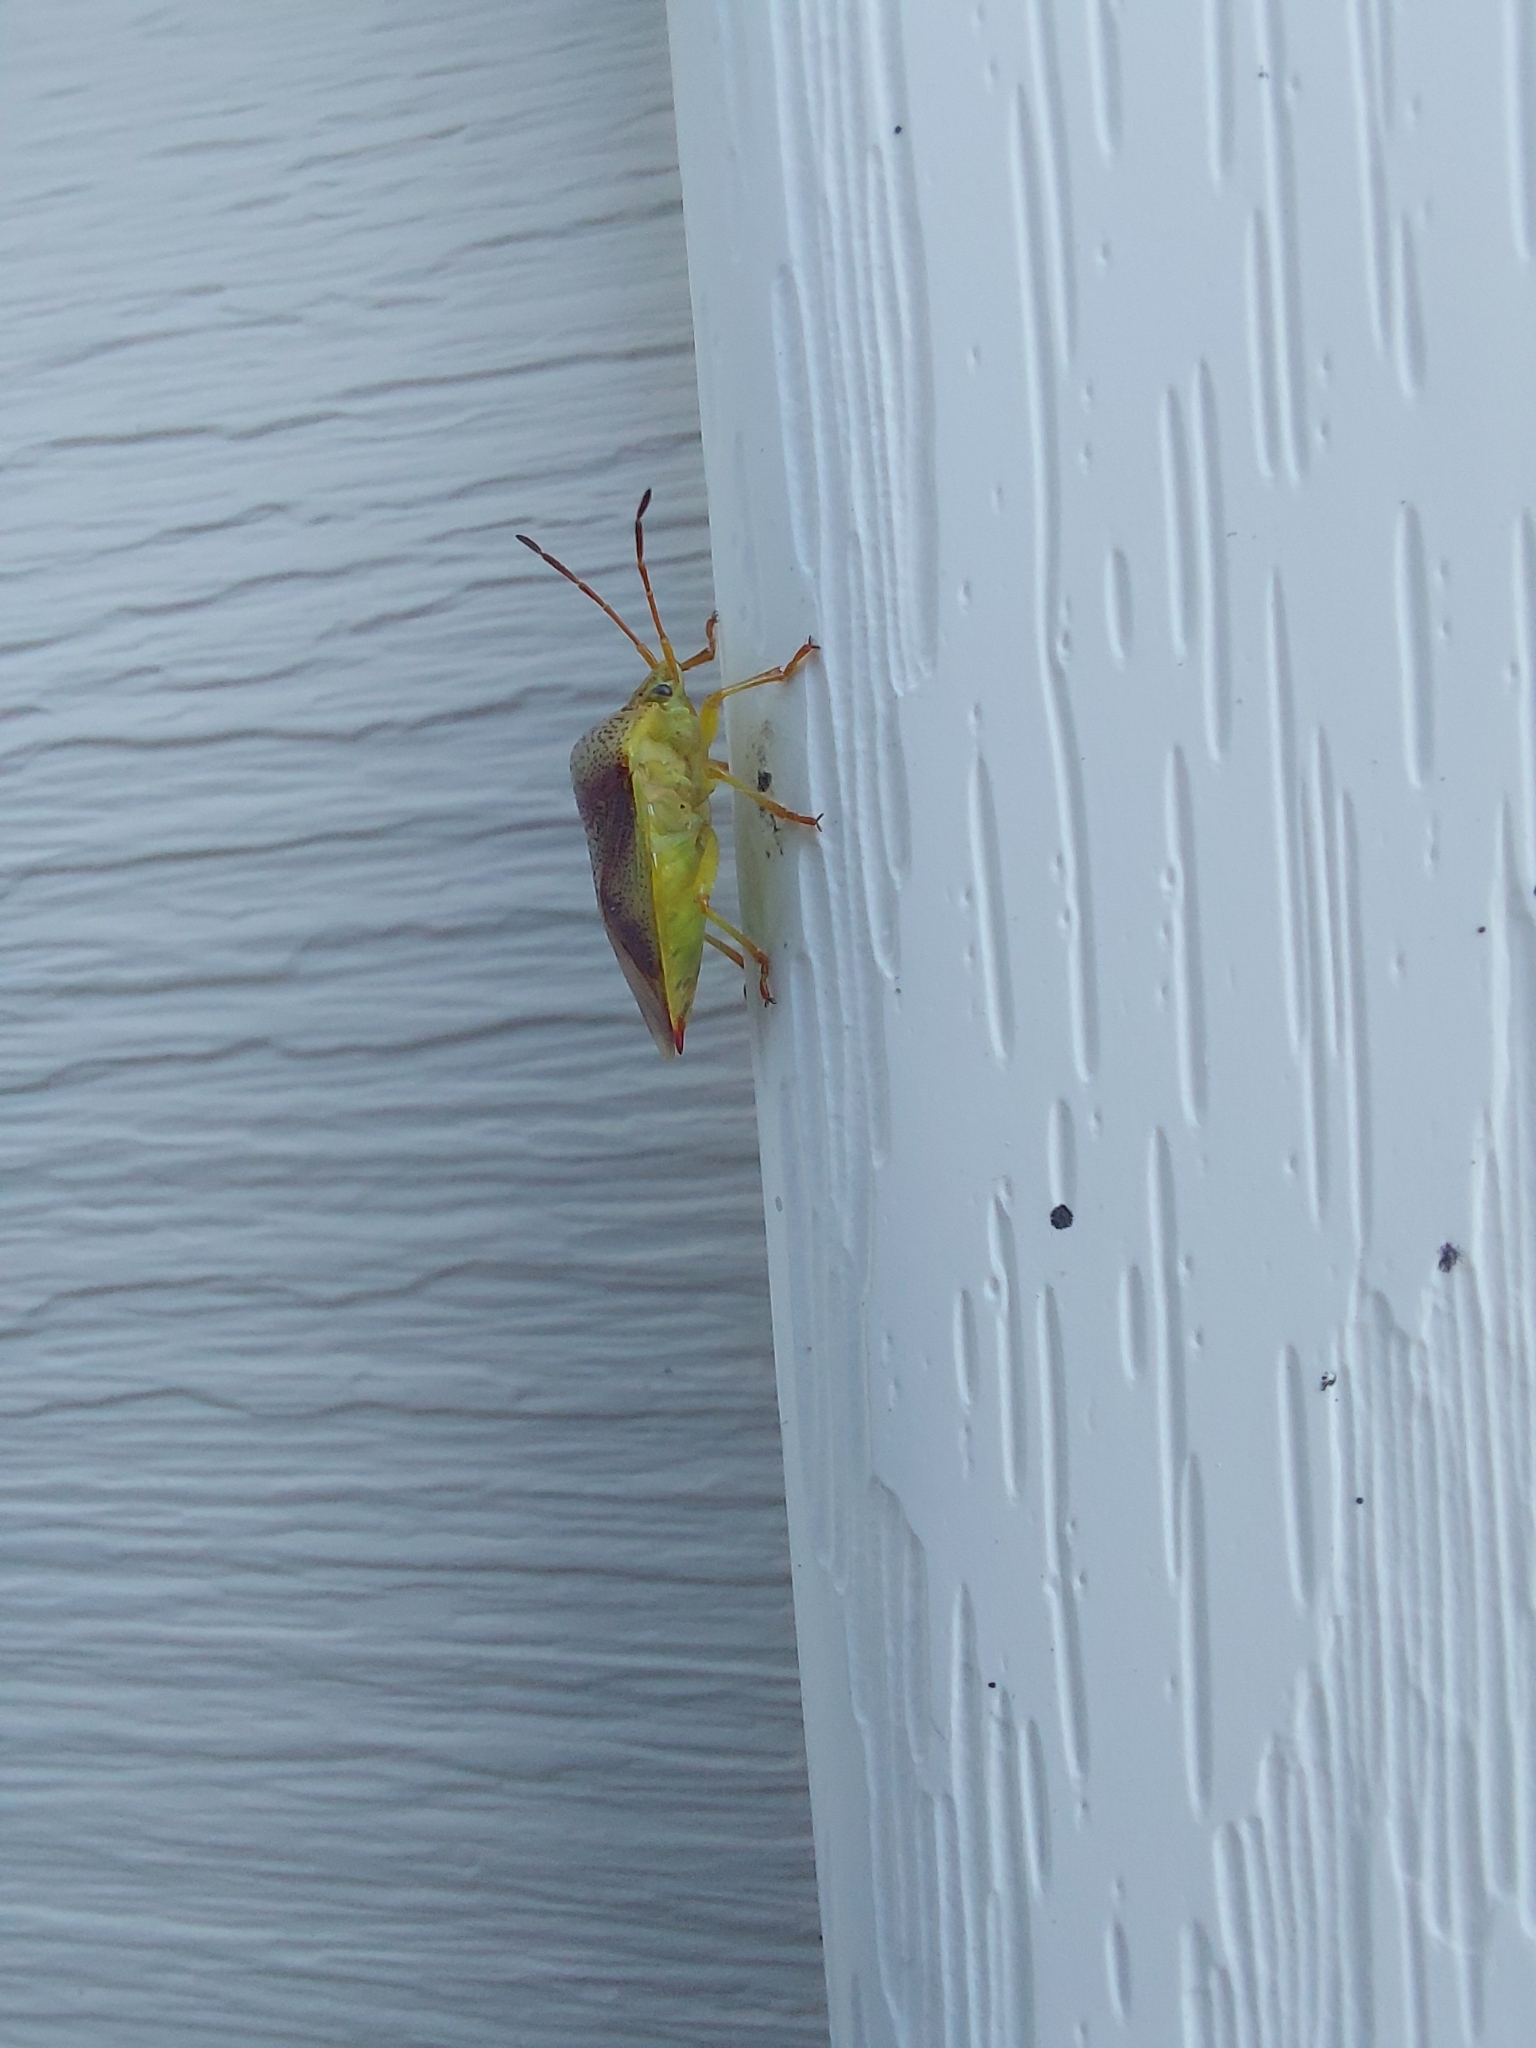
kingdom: Animalia
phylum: Arthropoda
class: Insecta
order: Hemiptera
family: Acanthosomatidae
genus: Elasmostethus
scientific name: Elasmostethus cruciatus
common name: Red-cross shield bug
